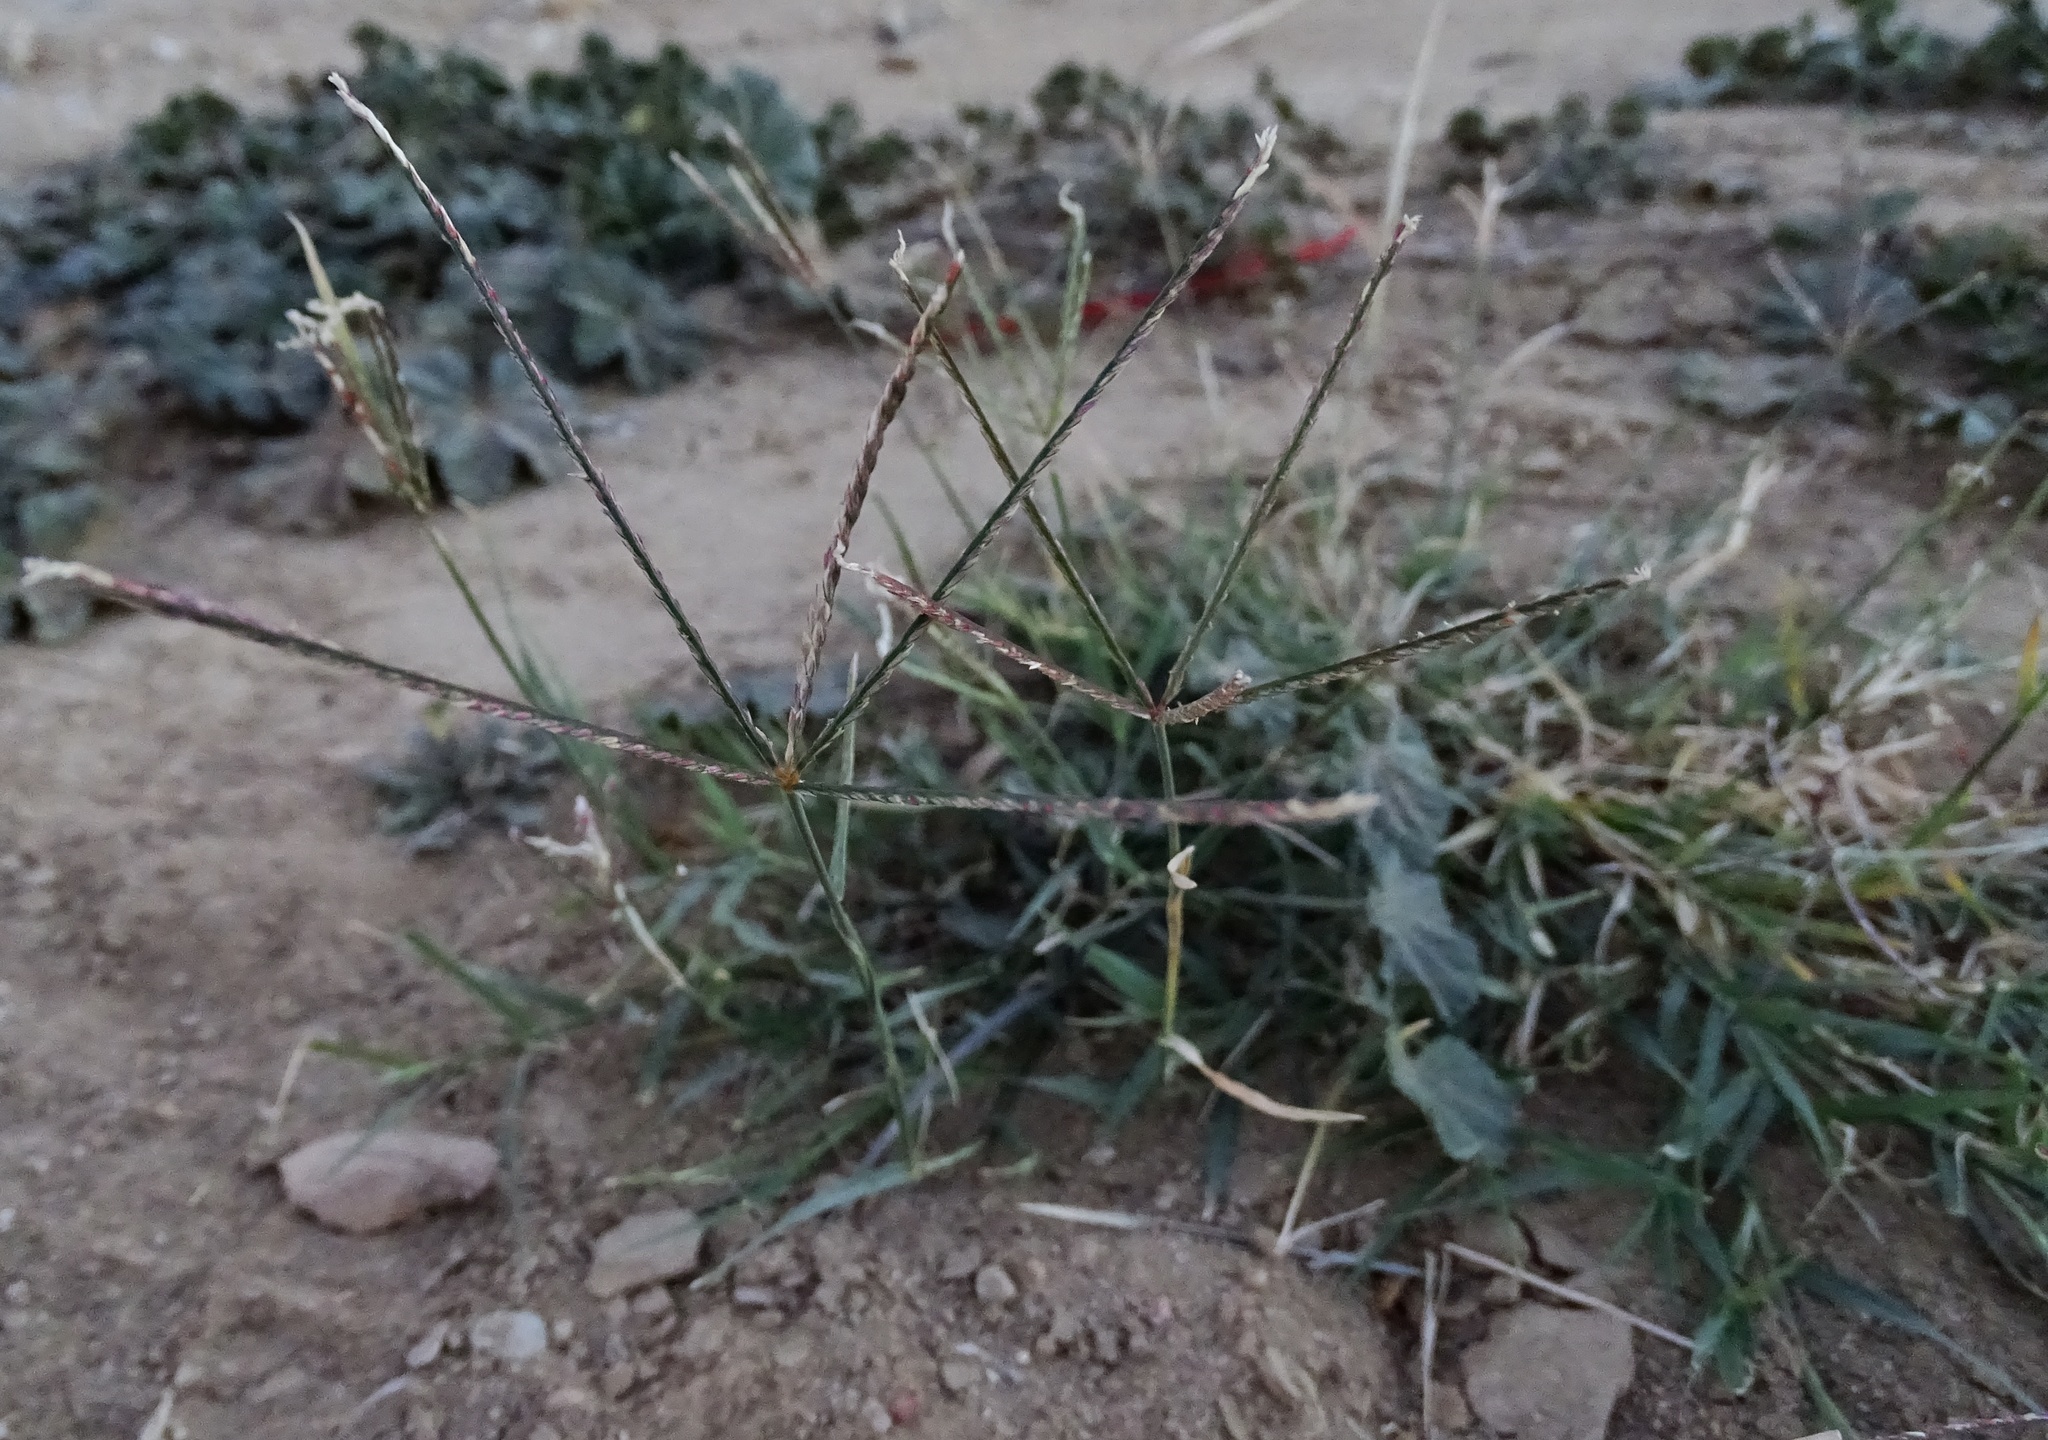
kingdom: Plantae
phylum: Tracheophyta
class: Liliopsida
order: Poales
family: Poaceae
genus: Cynodon
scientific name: Cynodon dactylon
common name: Bermuda grass
